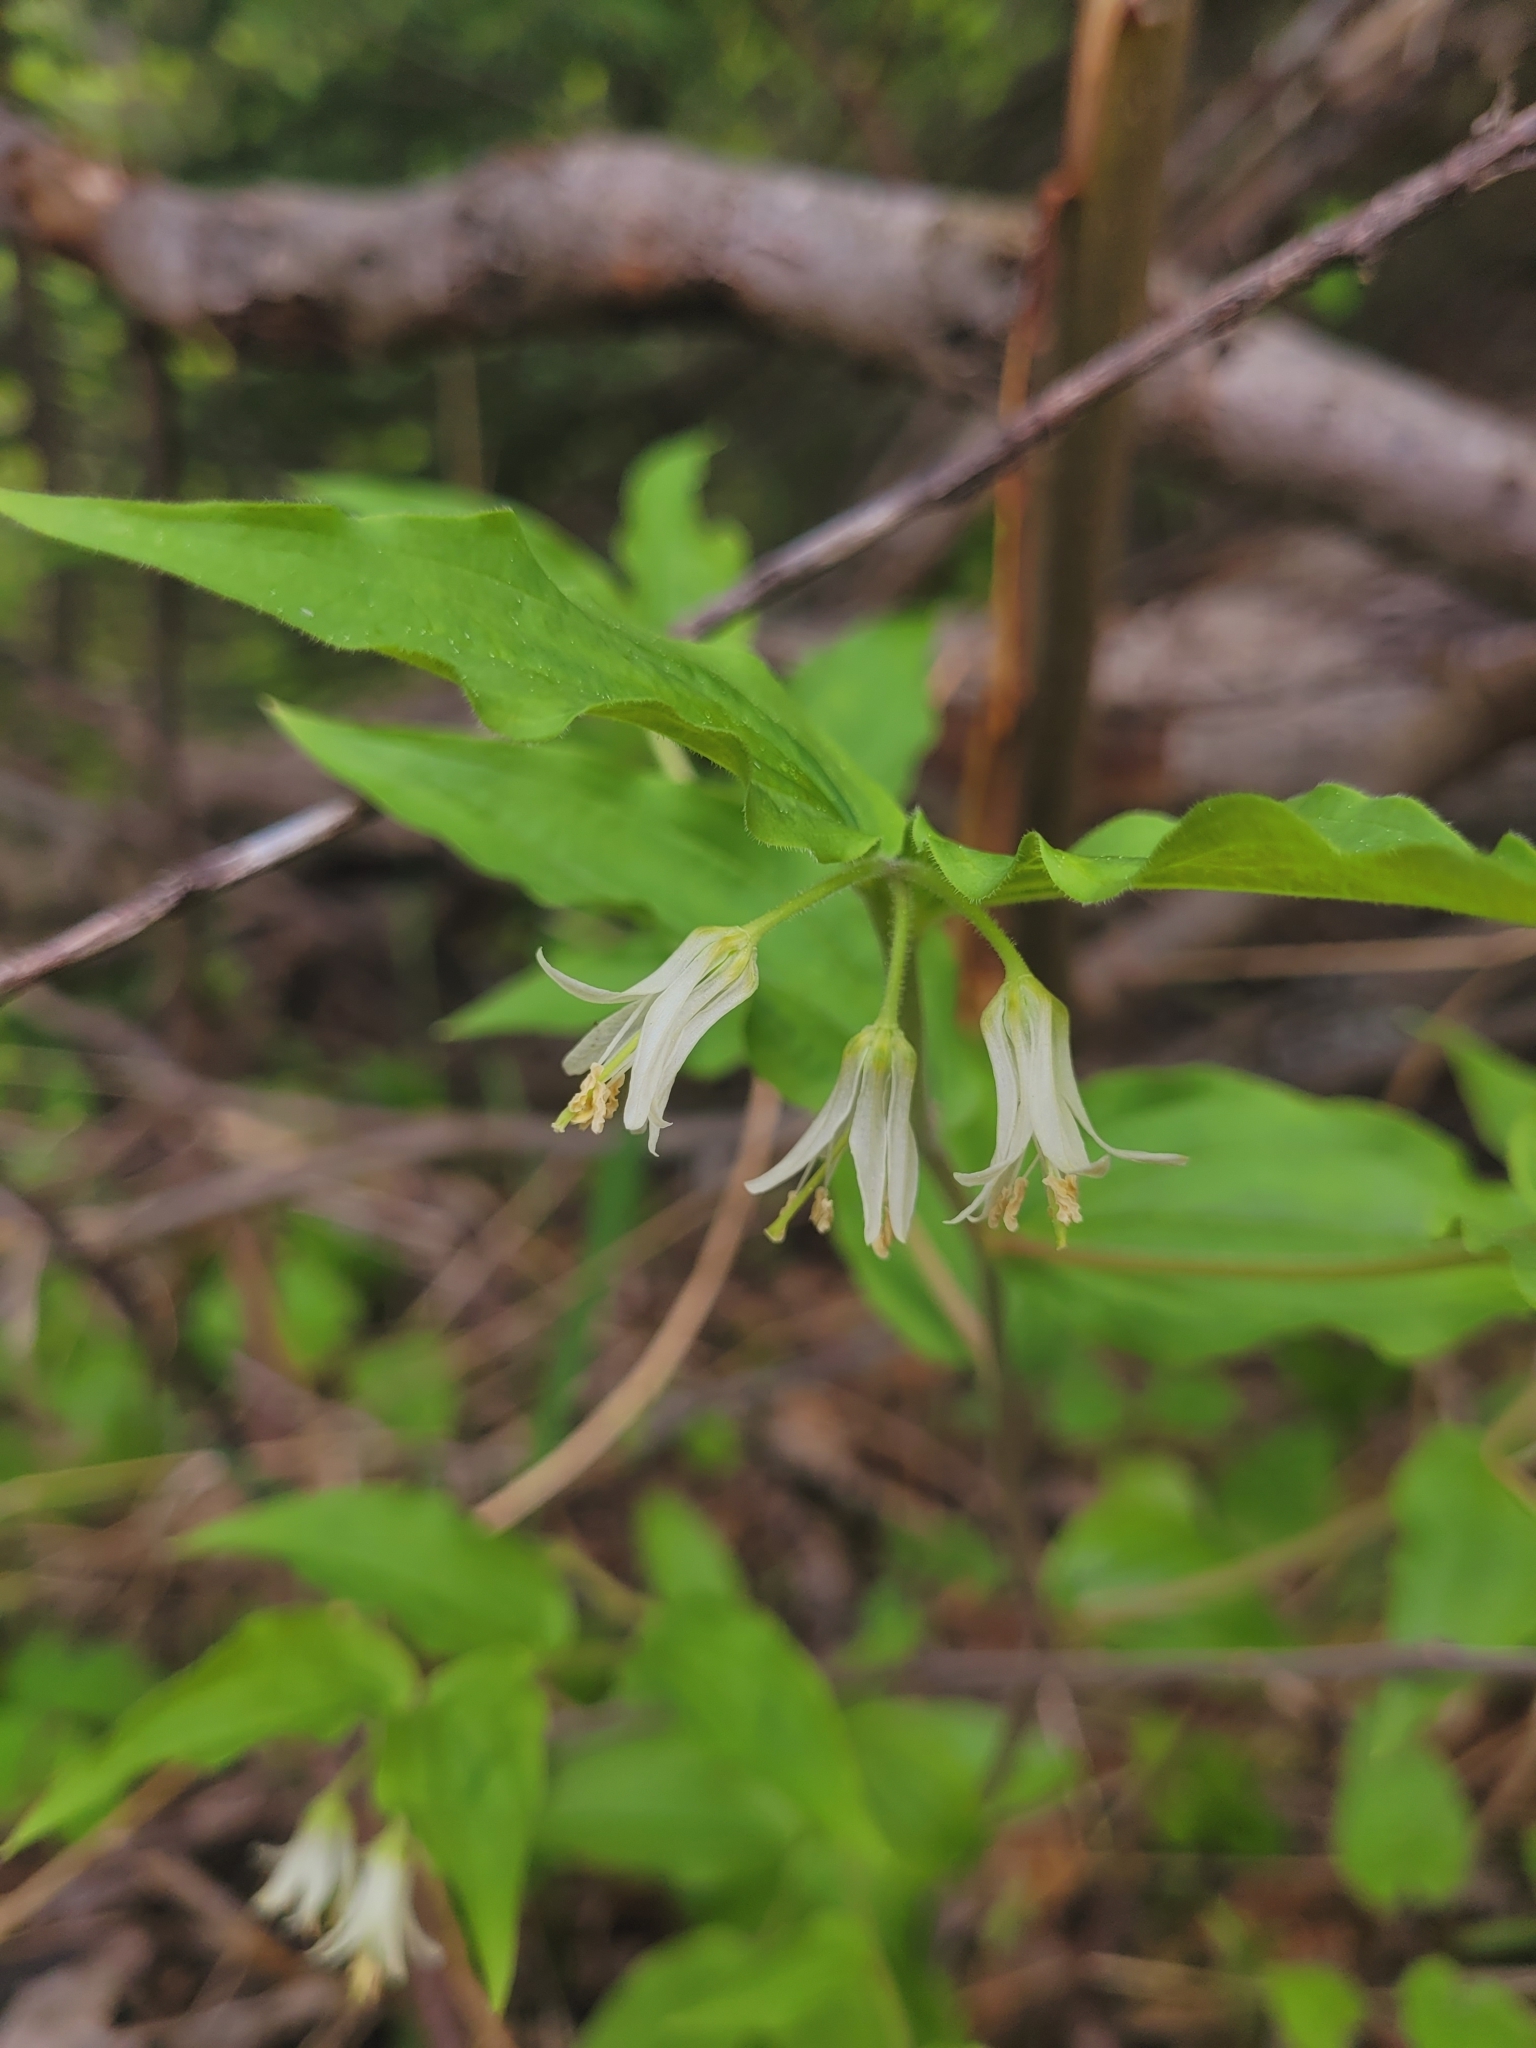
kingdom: Plantae
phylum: Tracheophyta
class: Liliopsida
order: Liliales
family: Liliaceae
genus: Prosartes
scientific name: Prosartes trachycarpa
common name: Rough-fruit fairy-bells
